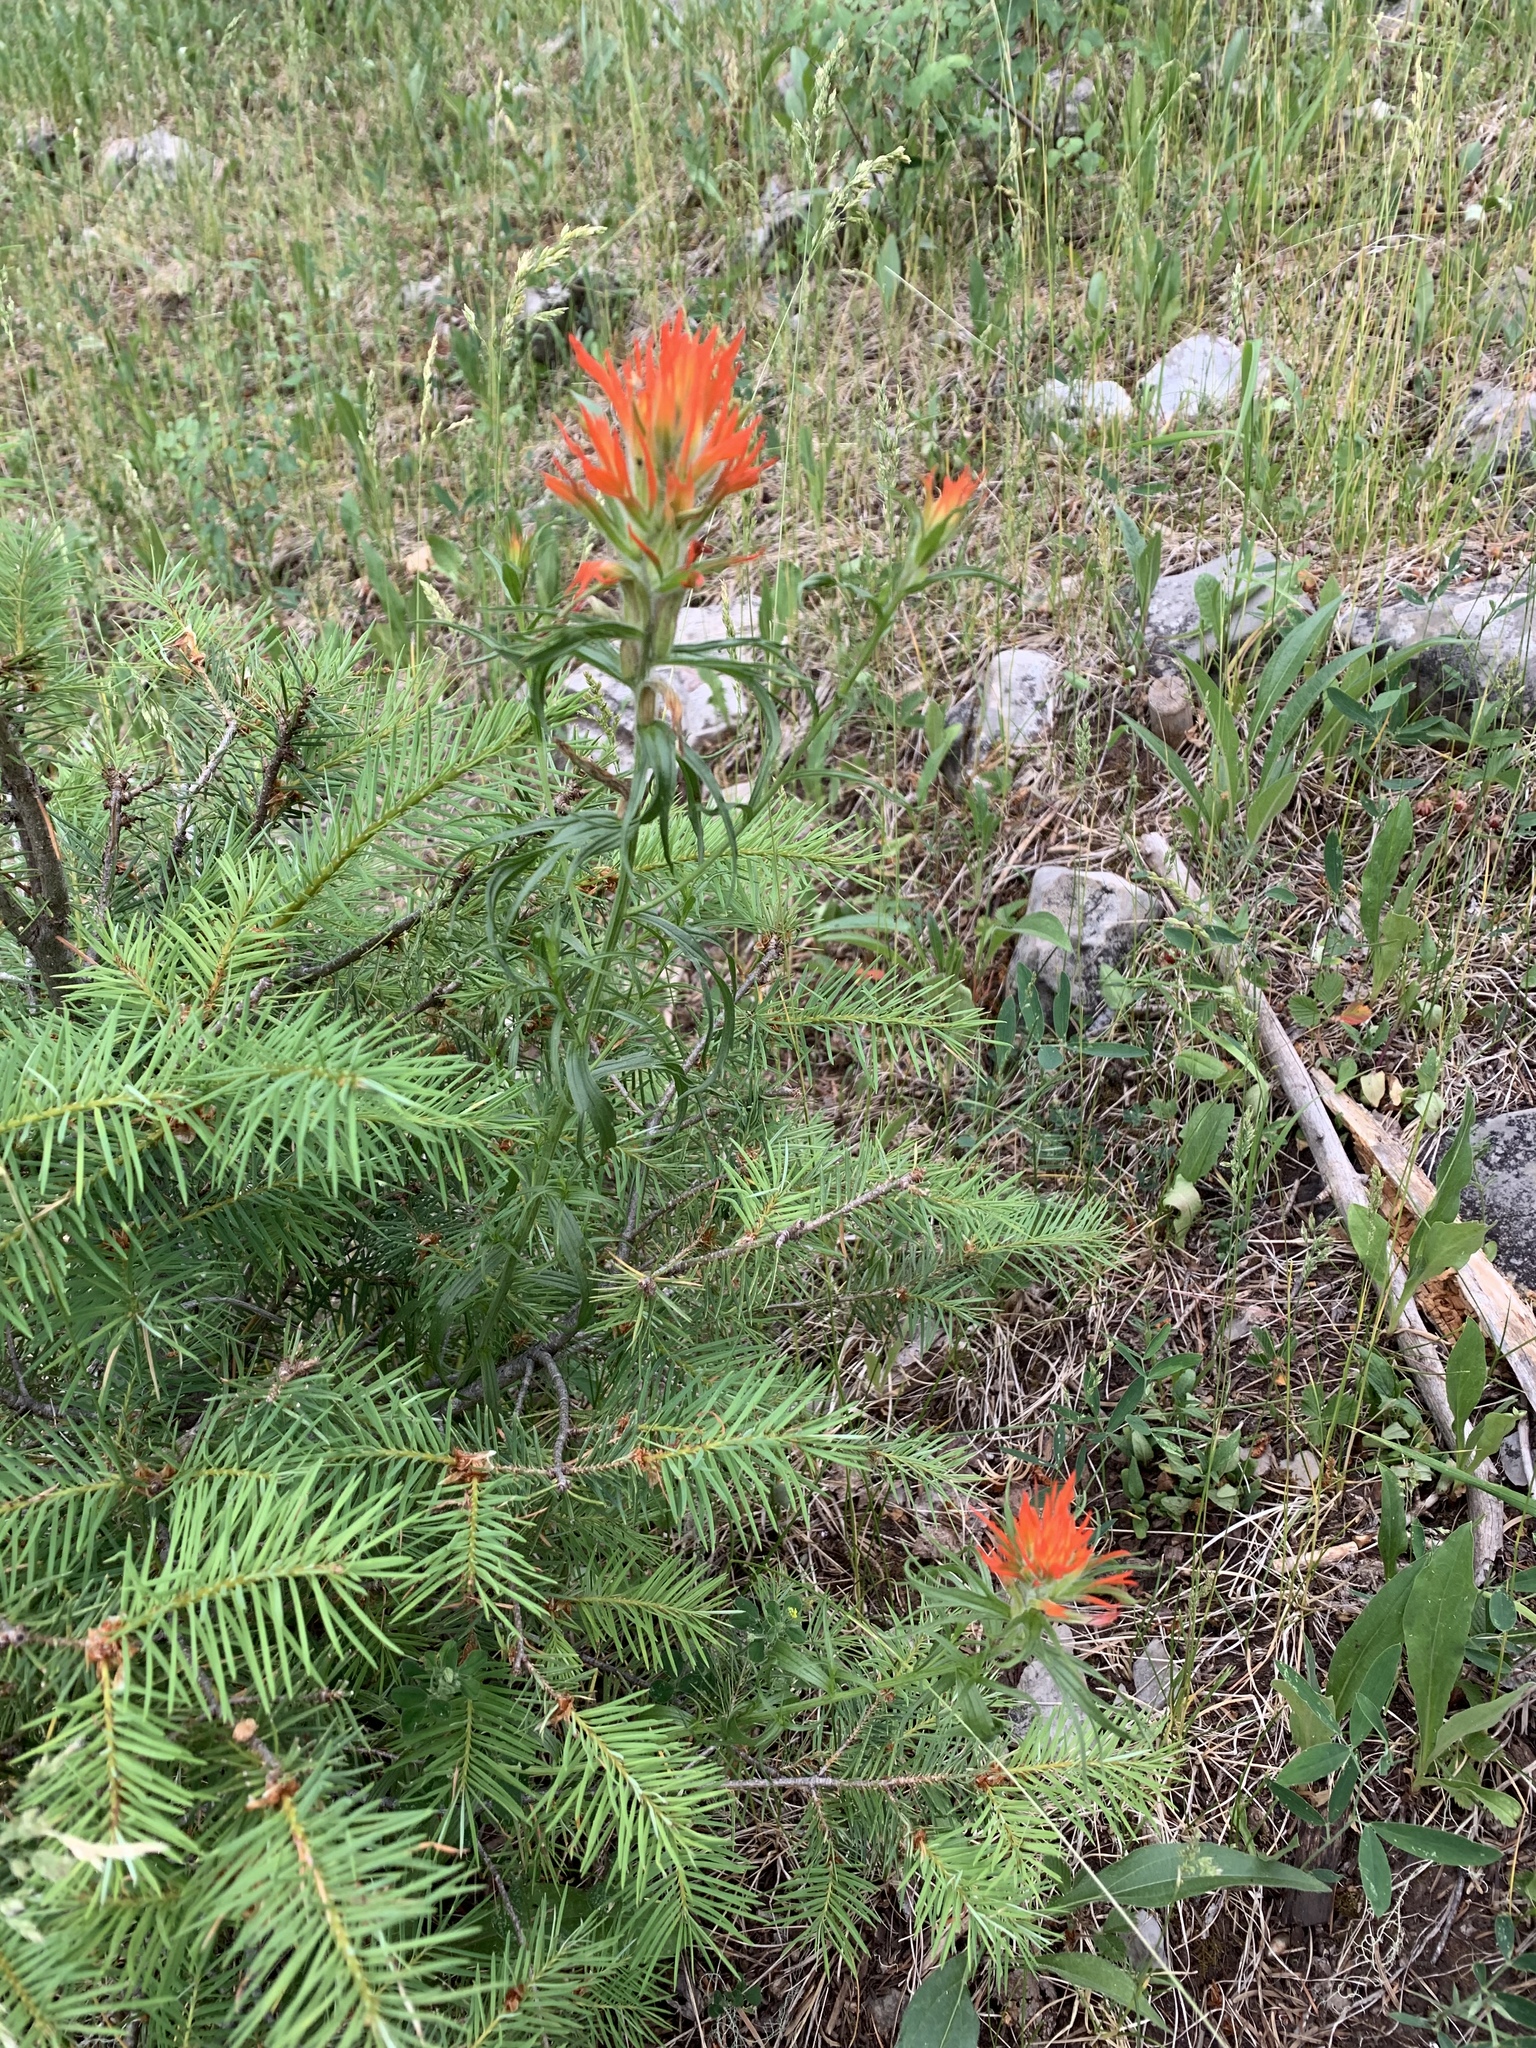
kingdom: Plantae
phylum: Tracheophyta
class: Magnoliopsida
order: Lamiales
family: Orobanchaceae
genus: Castilleja
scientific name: Castilleja wootonii
